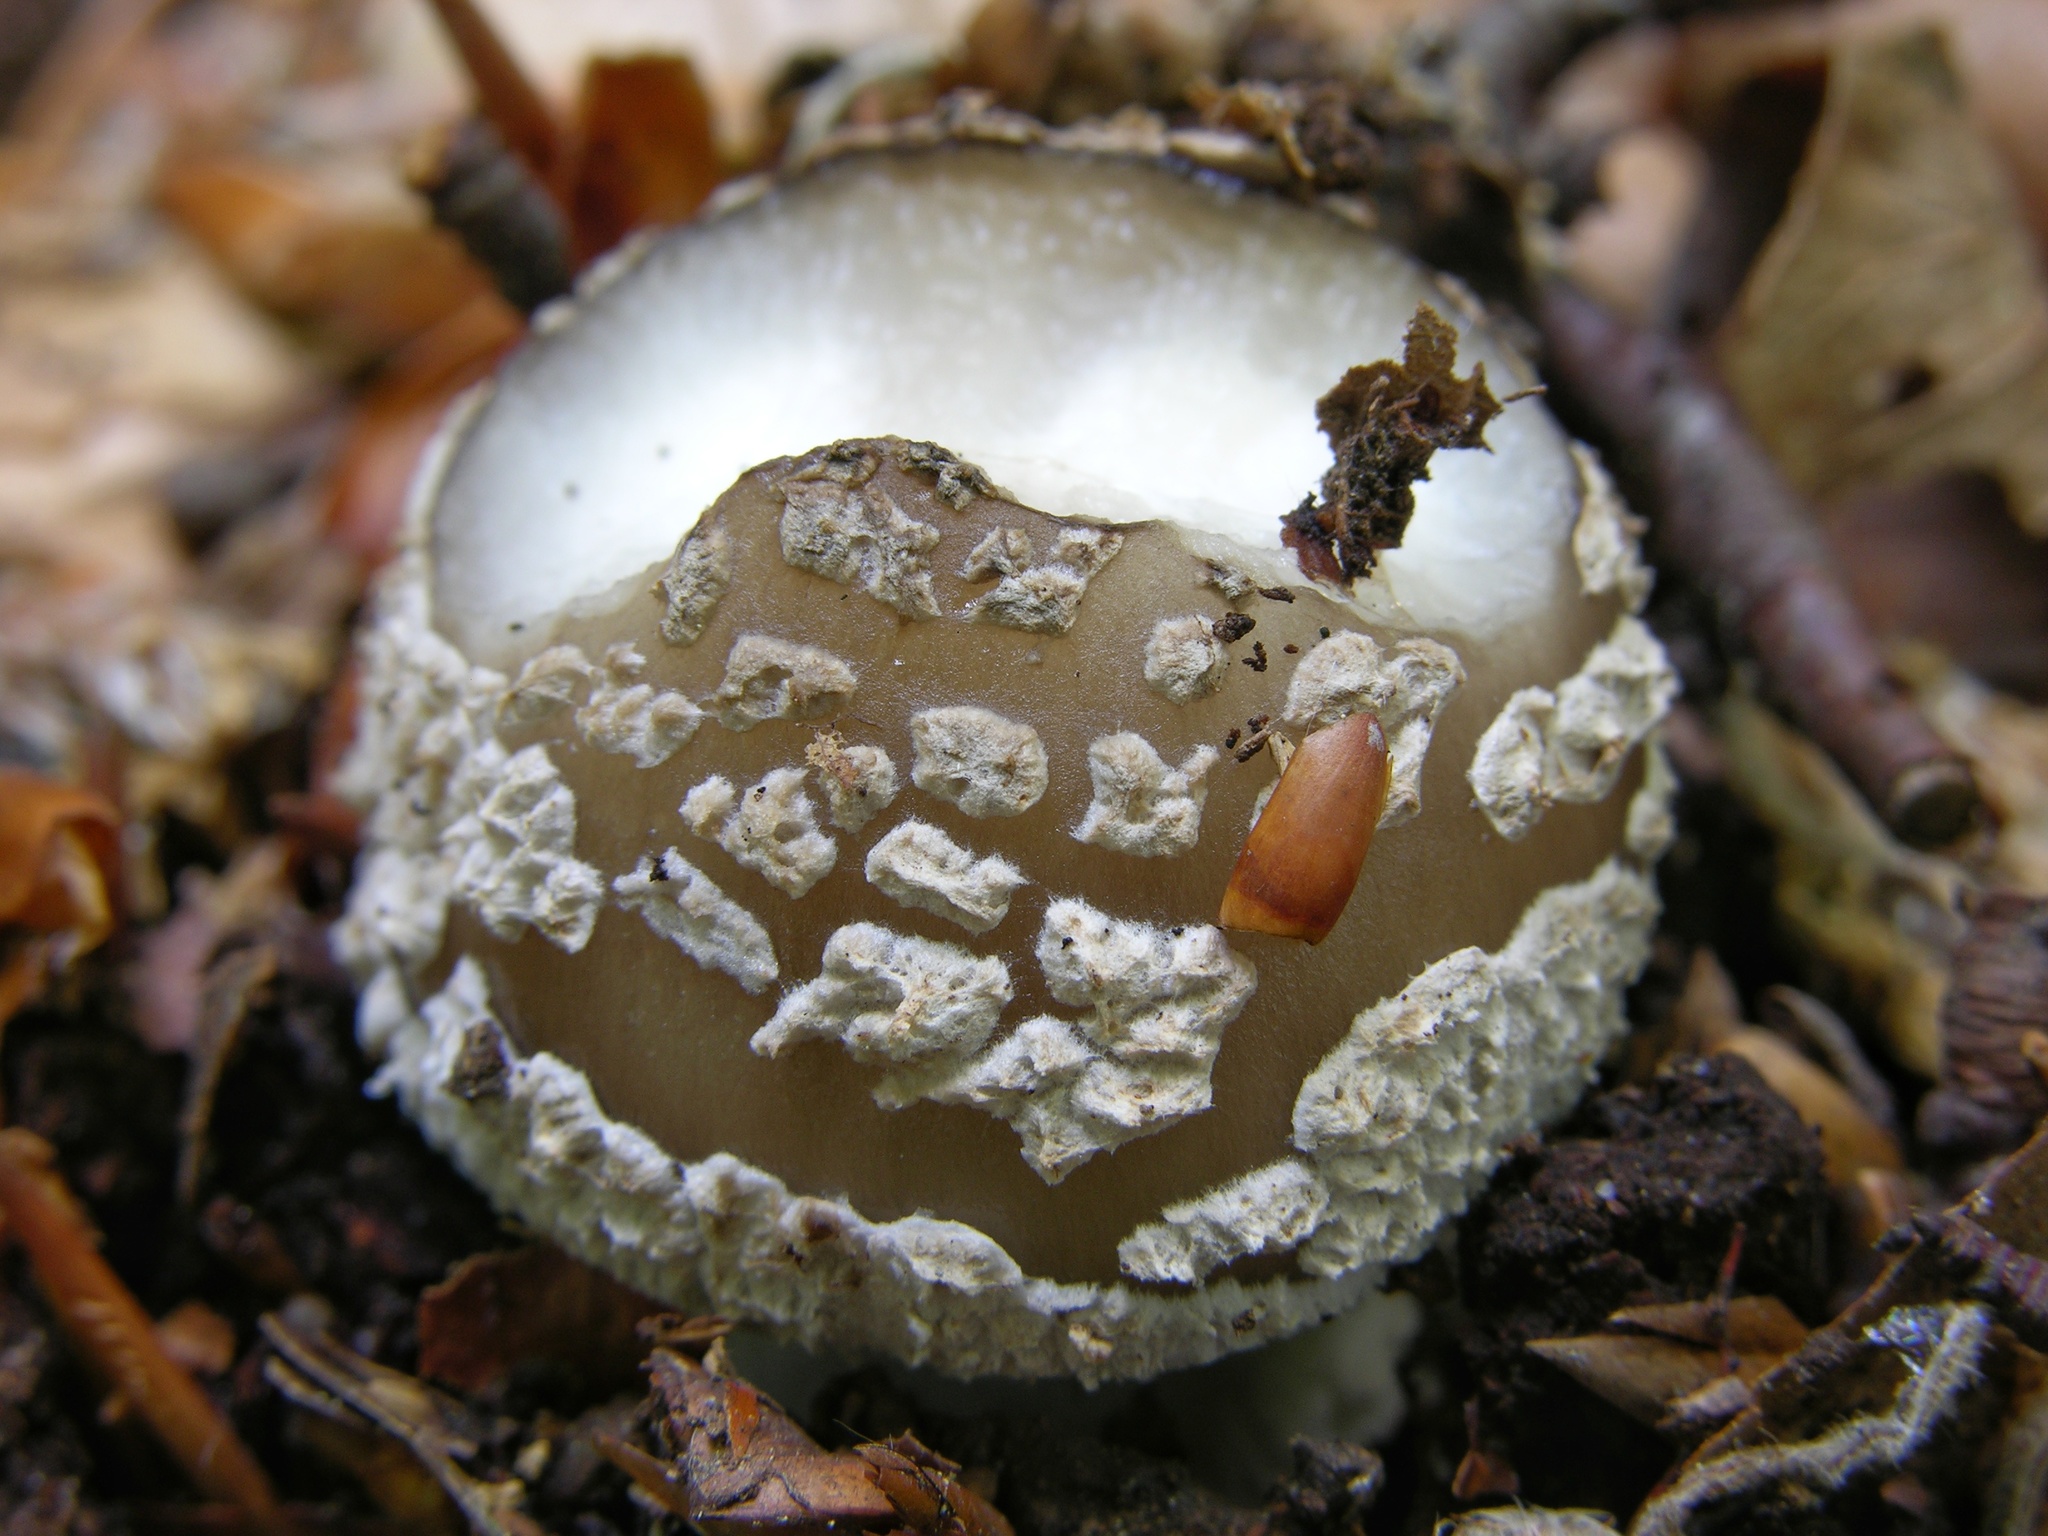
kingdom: Fungi
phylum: Basidiomycota
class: Agaricomycetes
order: Agaricales
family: Amanitaceae
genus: Amanita
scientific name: Amanita pantherina
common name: Panthercap
